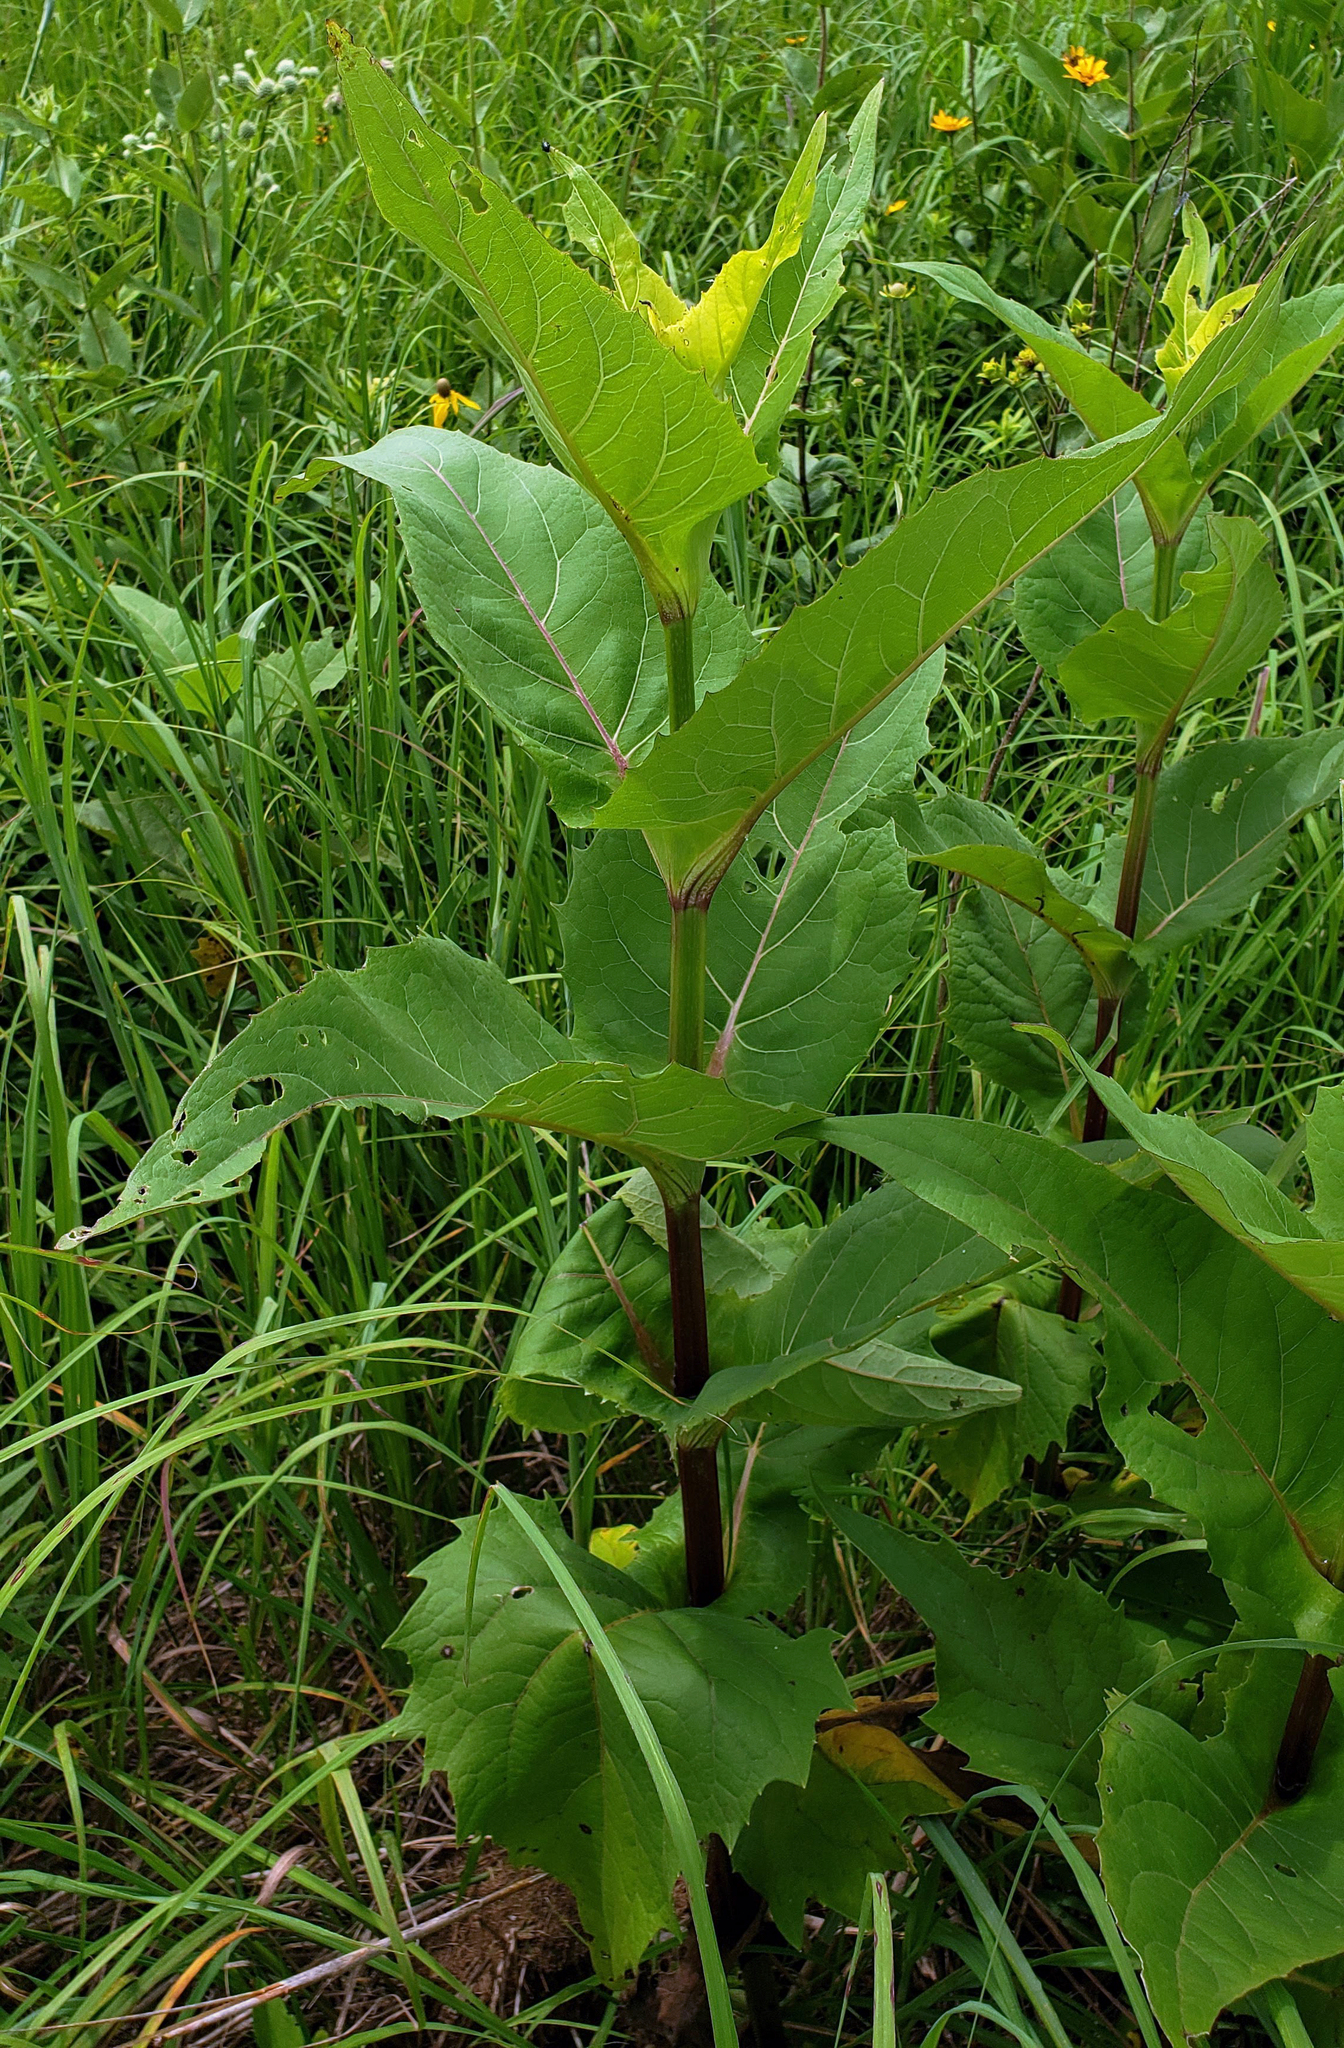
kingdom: Plantae
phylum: Tracheophyta
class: Magnoliopsida
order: Asterales
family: Asteraceae
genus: Silphium
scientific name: Silphium perfoliatum
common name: Cup-plant
